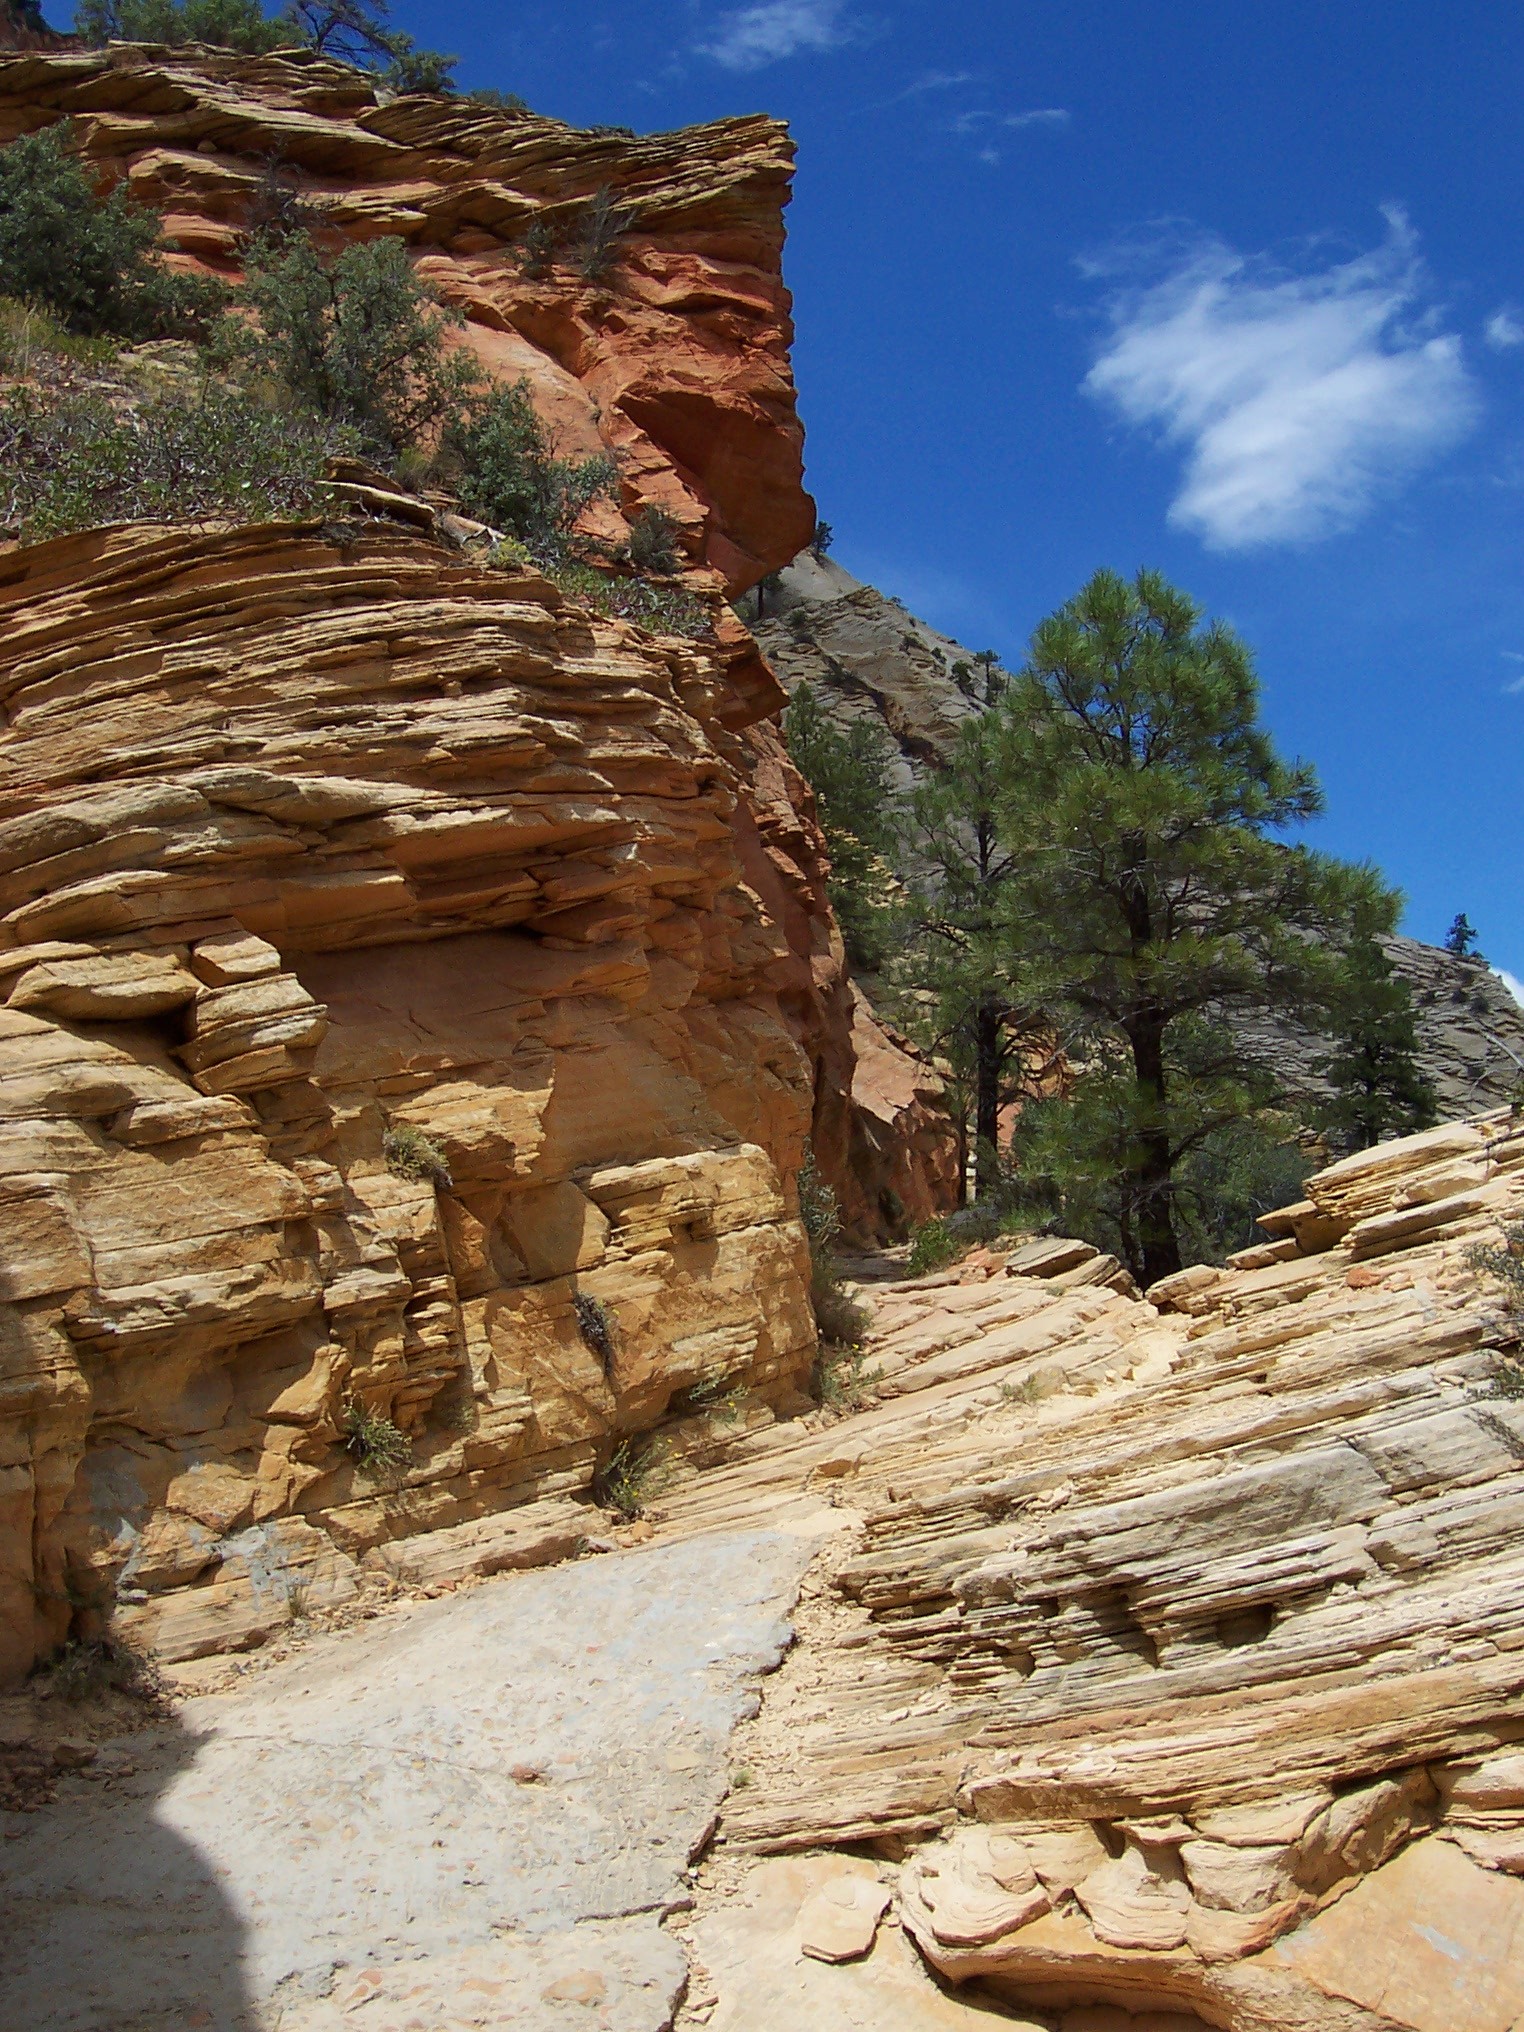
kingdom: Plantae
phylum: Tracheophyta
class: Pinopsida
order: Pinales
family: Pinaceae
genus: Pinus
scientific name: Pinus ponderosa
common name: Western yellow-pine
